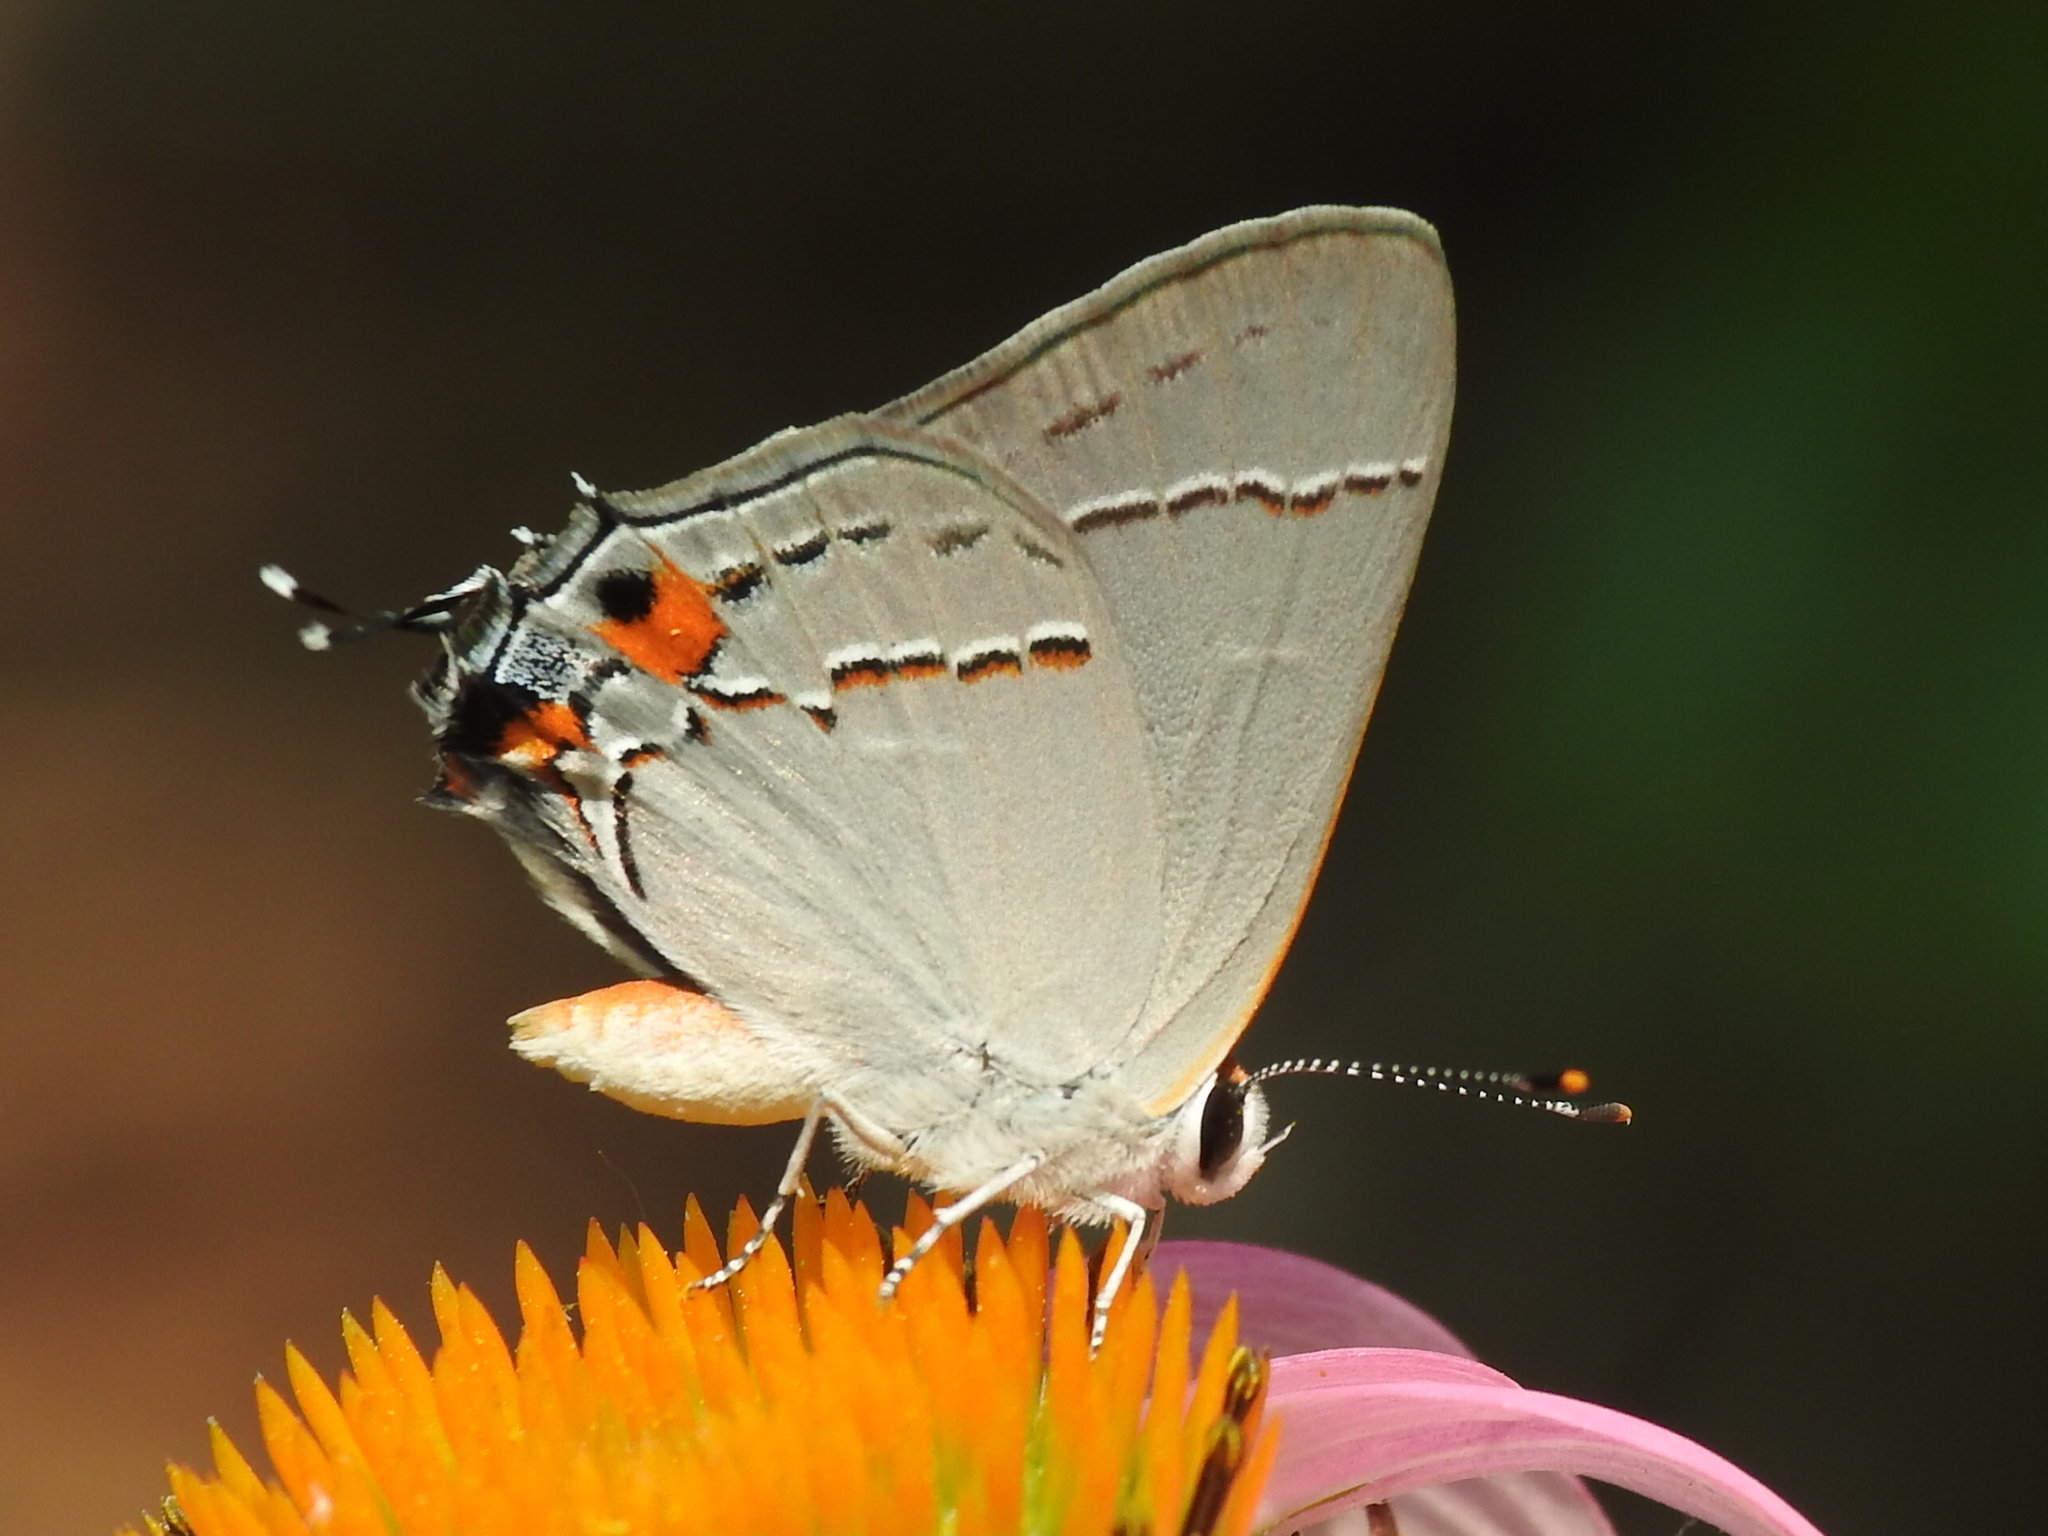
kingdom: Animalia
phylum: Arthropoda
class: Insecta
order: Lepidoptera
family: Lycaenidae
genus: Strymon
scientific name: Strymon melinus
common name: Gray hairstreak
